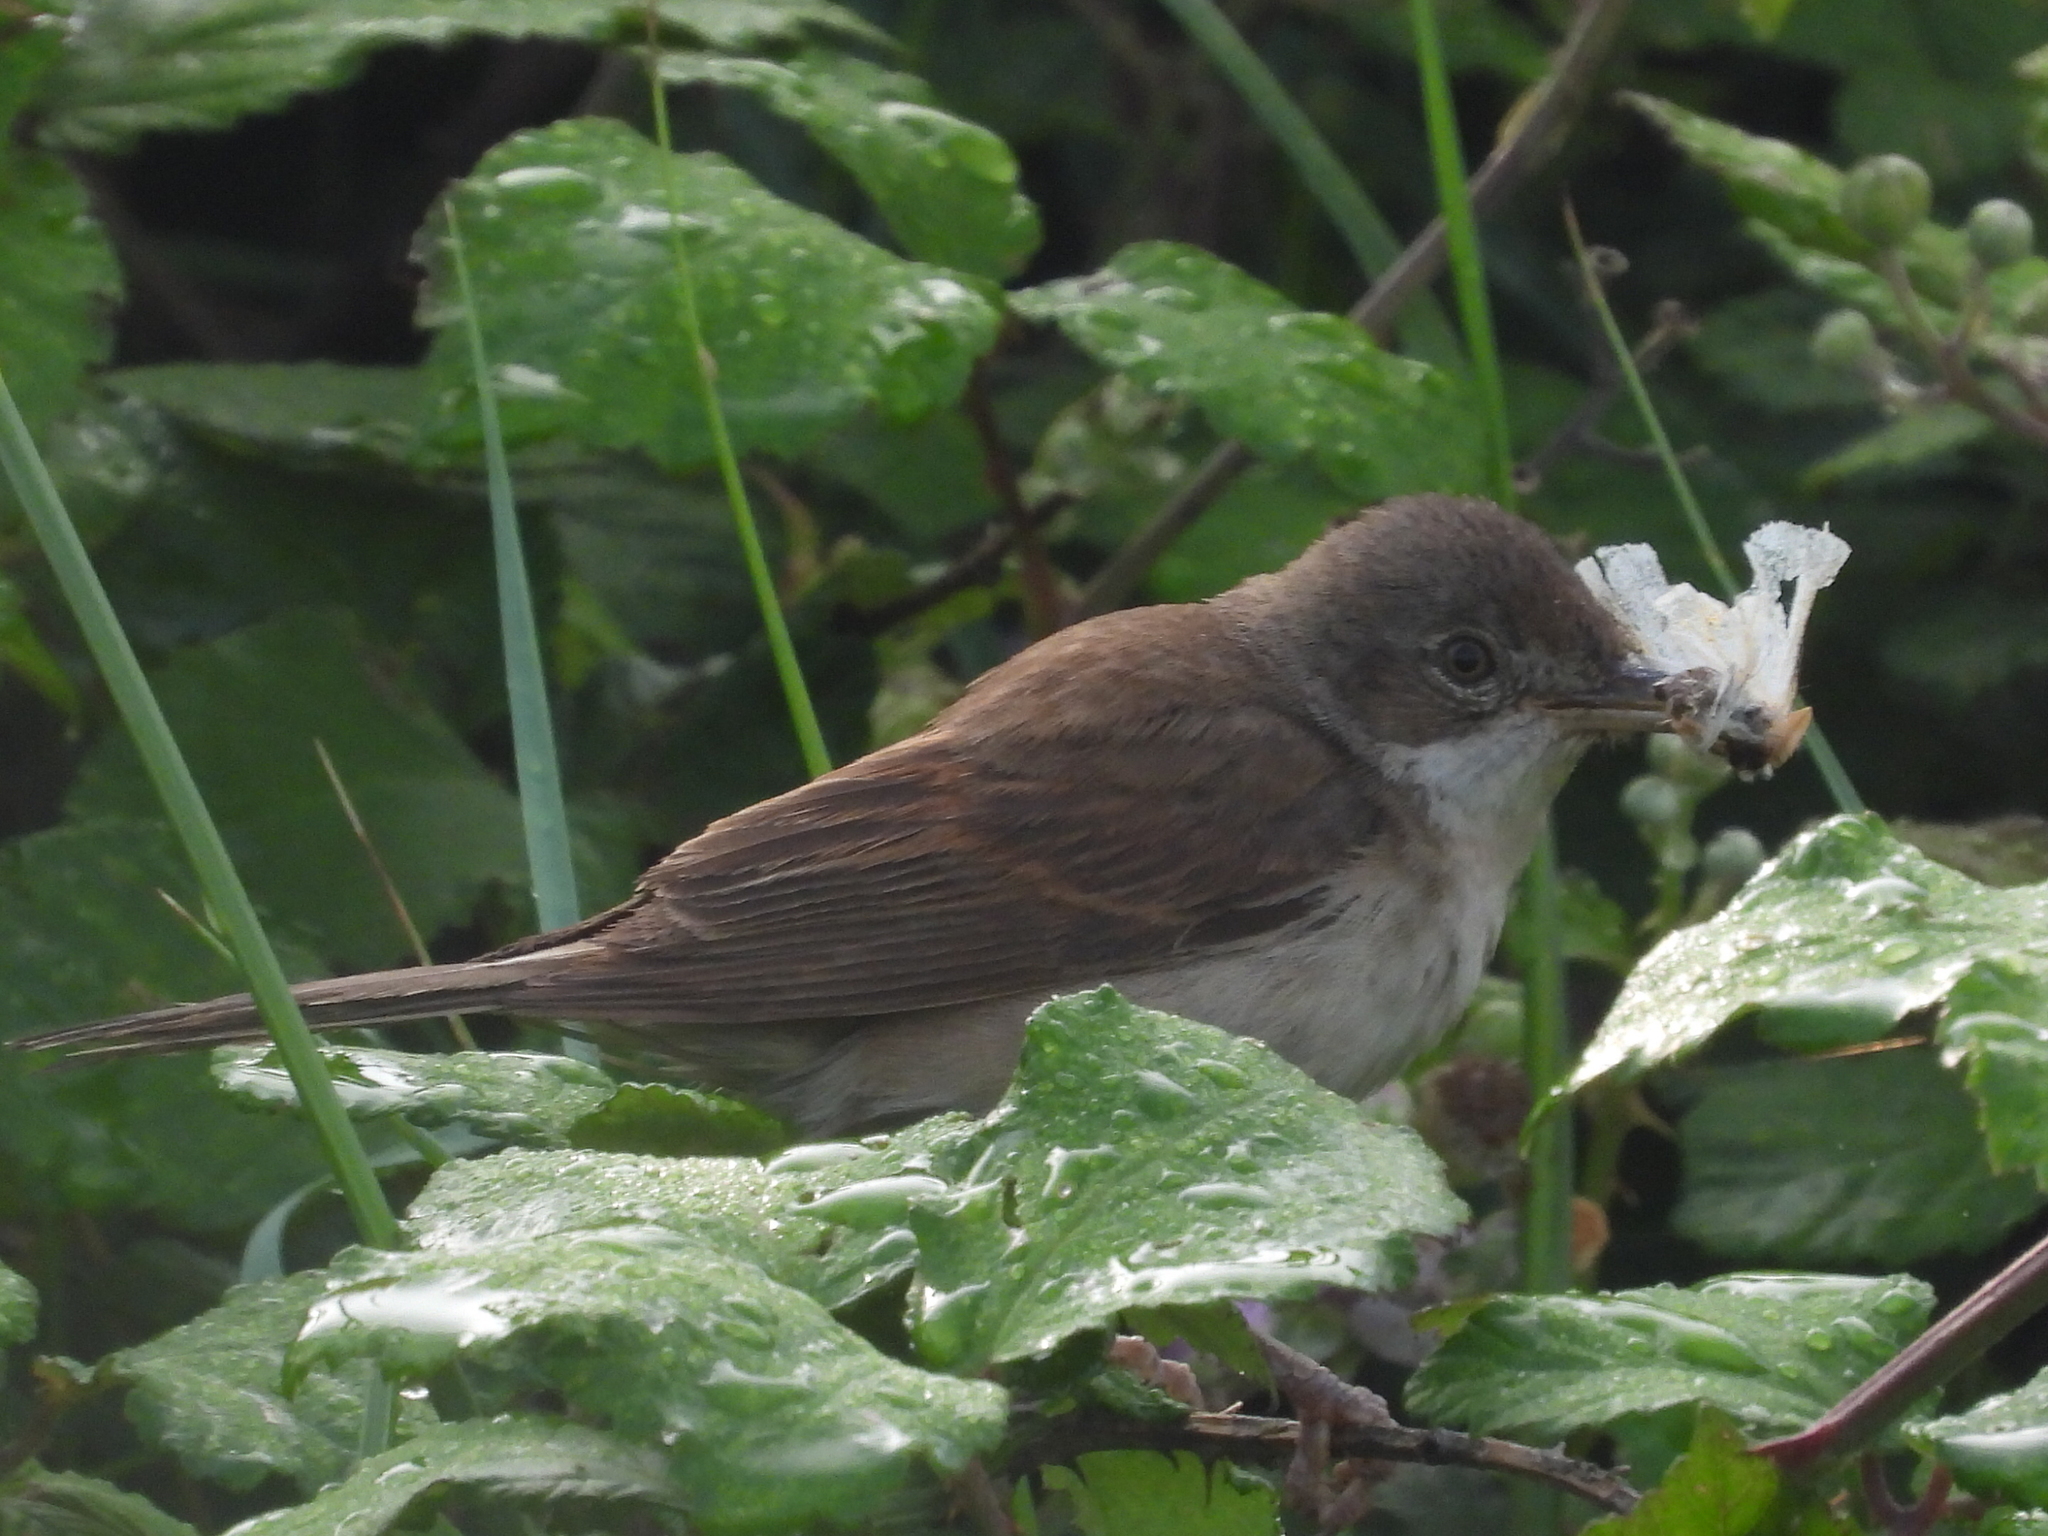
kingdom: Animalia
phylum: Chordata
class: Aves
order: Passeriformes
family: Sylviidae
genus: Sylvia
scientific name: Sylvia communis
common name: Common whitethroat
